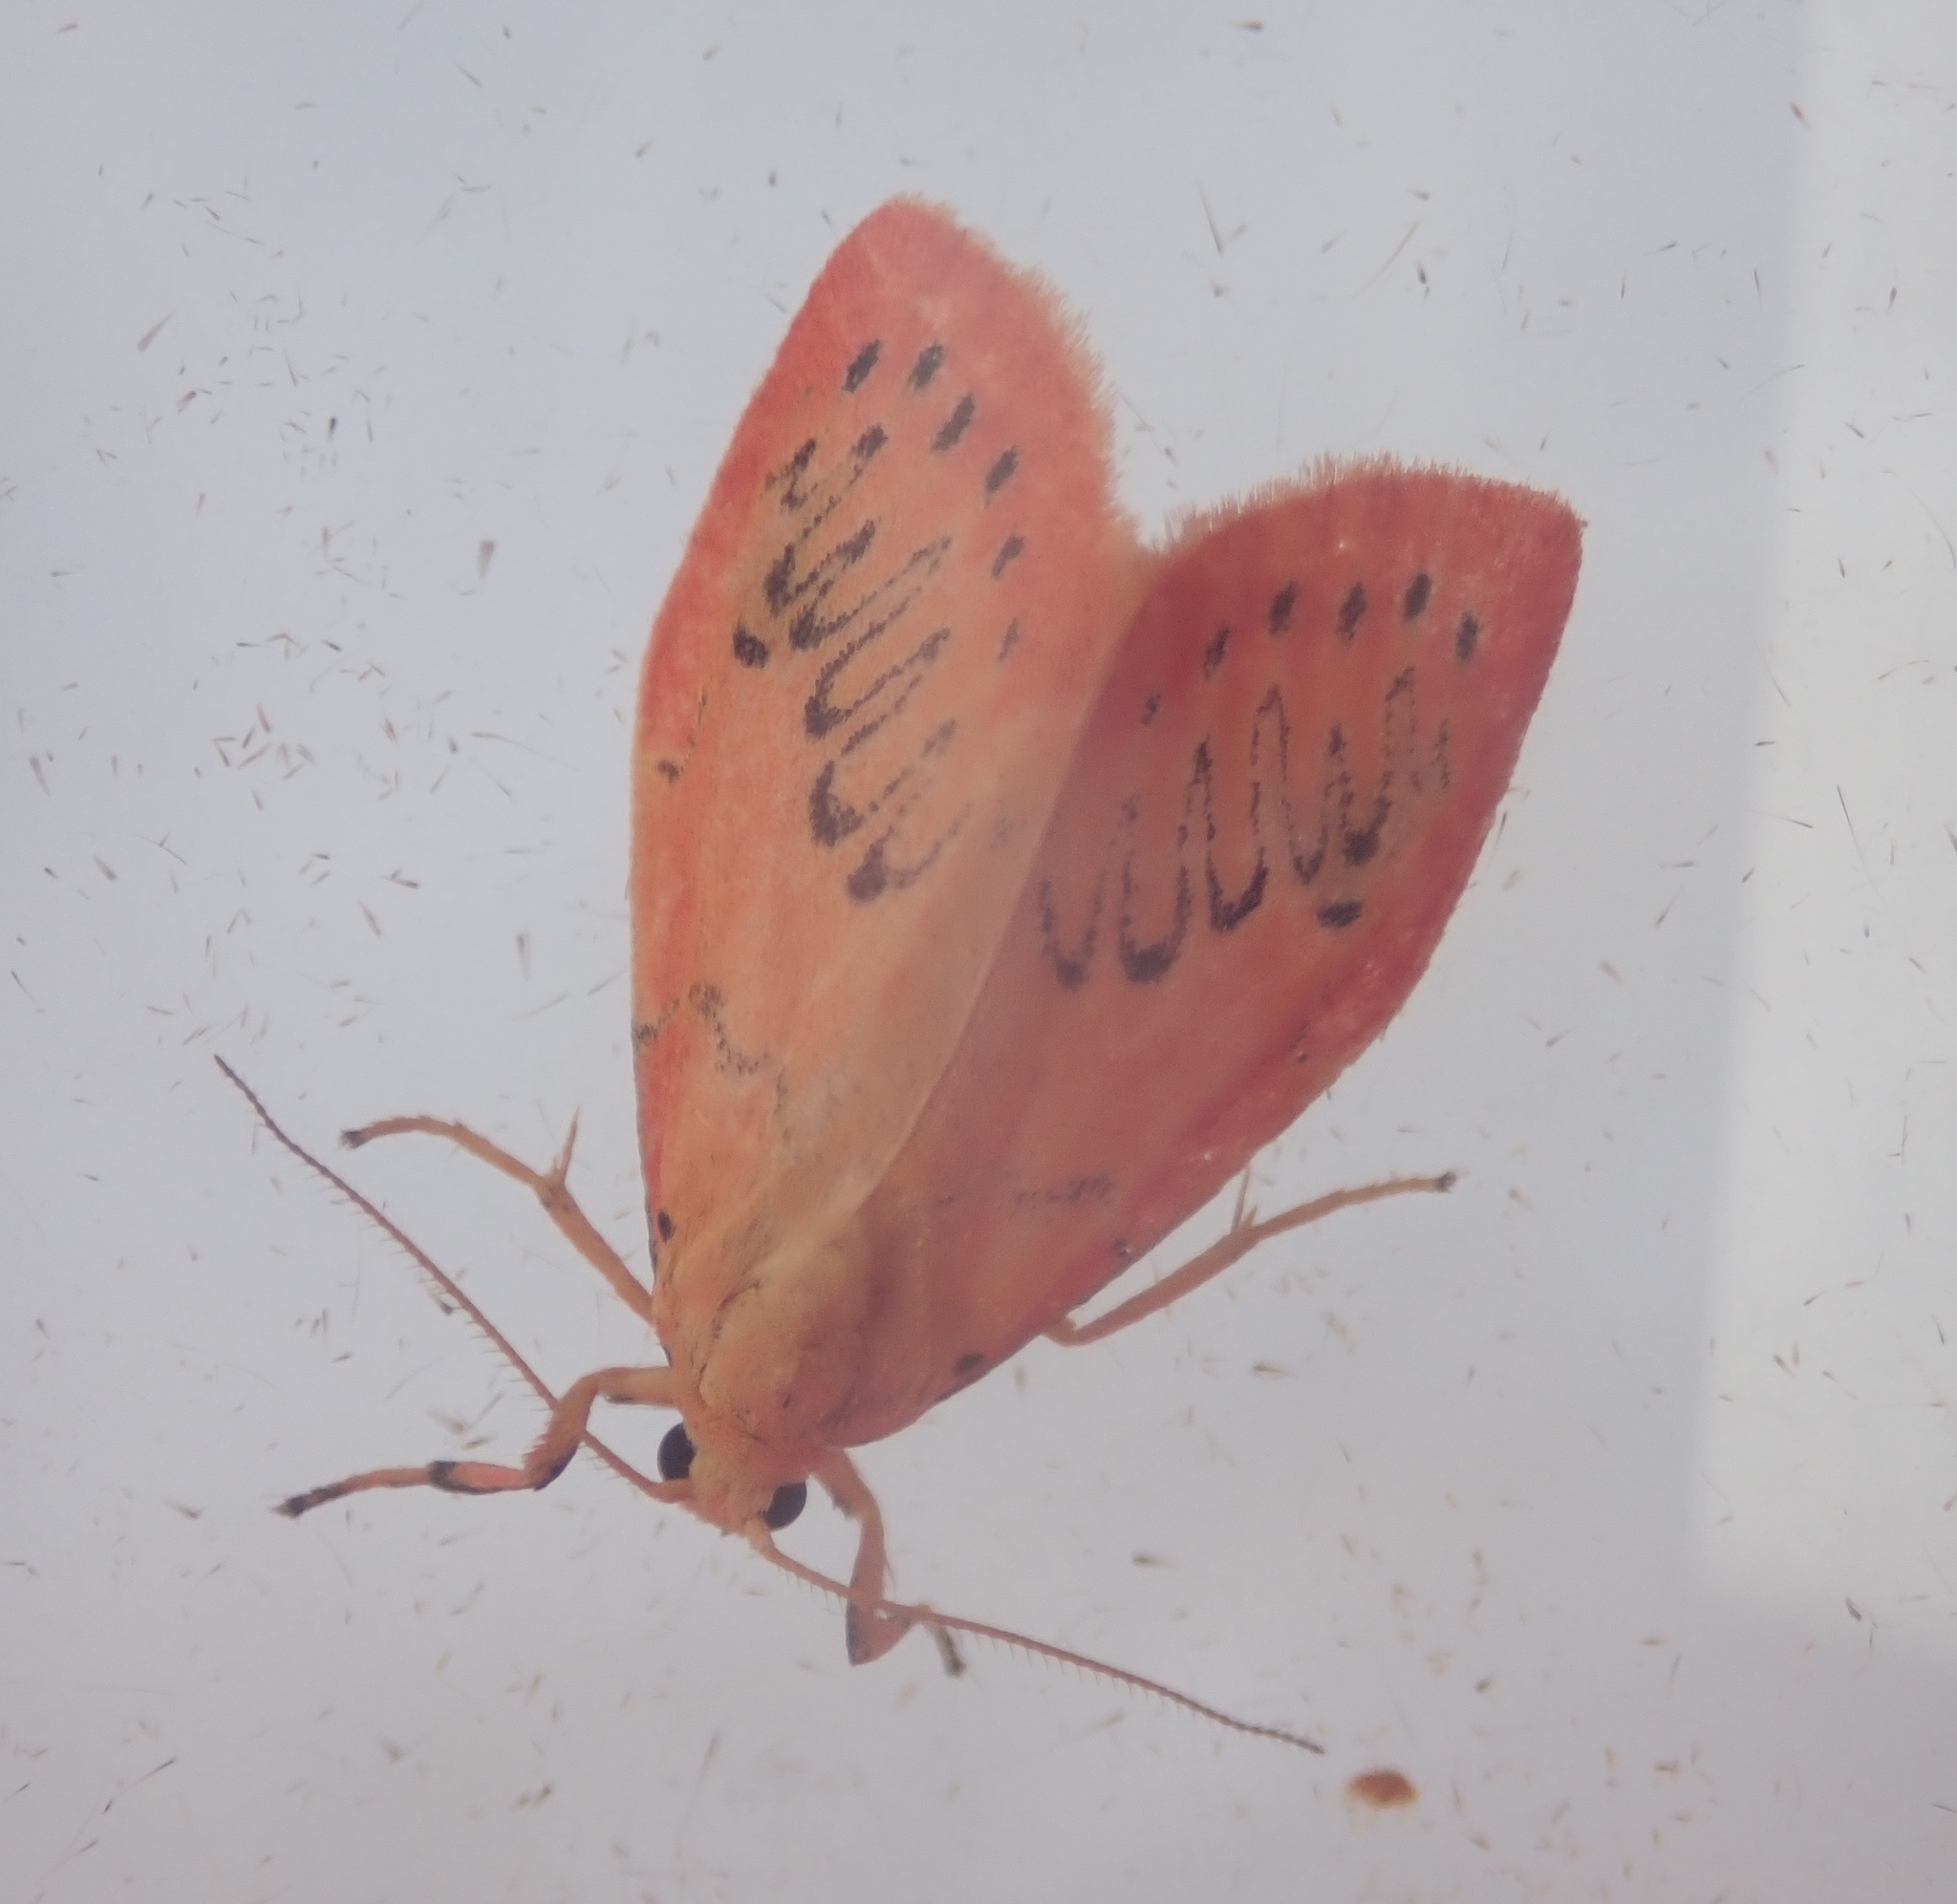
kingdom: Animalia
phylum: Arthropoda
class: Insecta
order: Lepidoptera
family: Erebidae
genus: Miltochrista
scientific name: Miltochrista miniata
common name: Rosy footman
